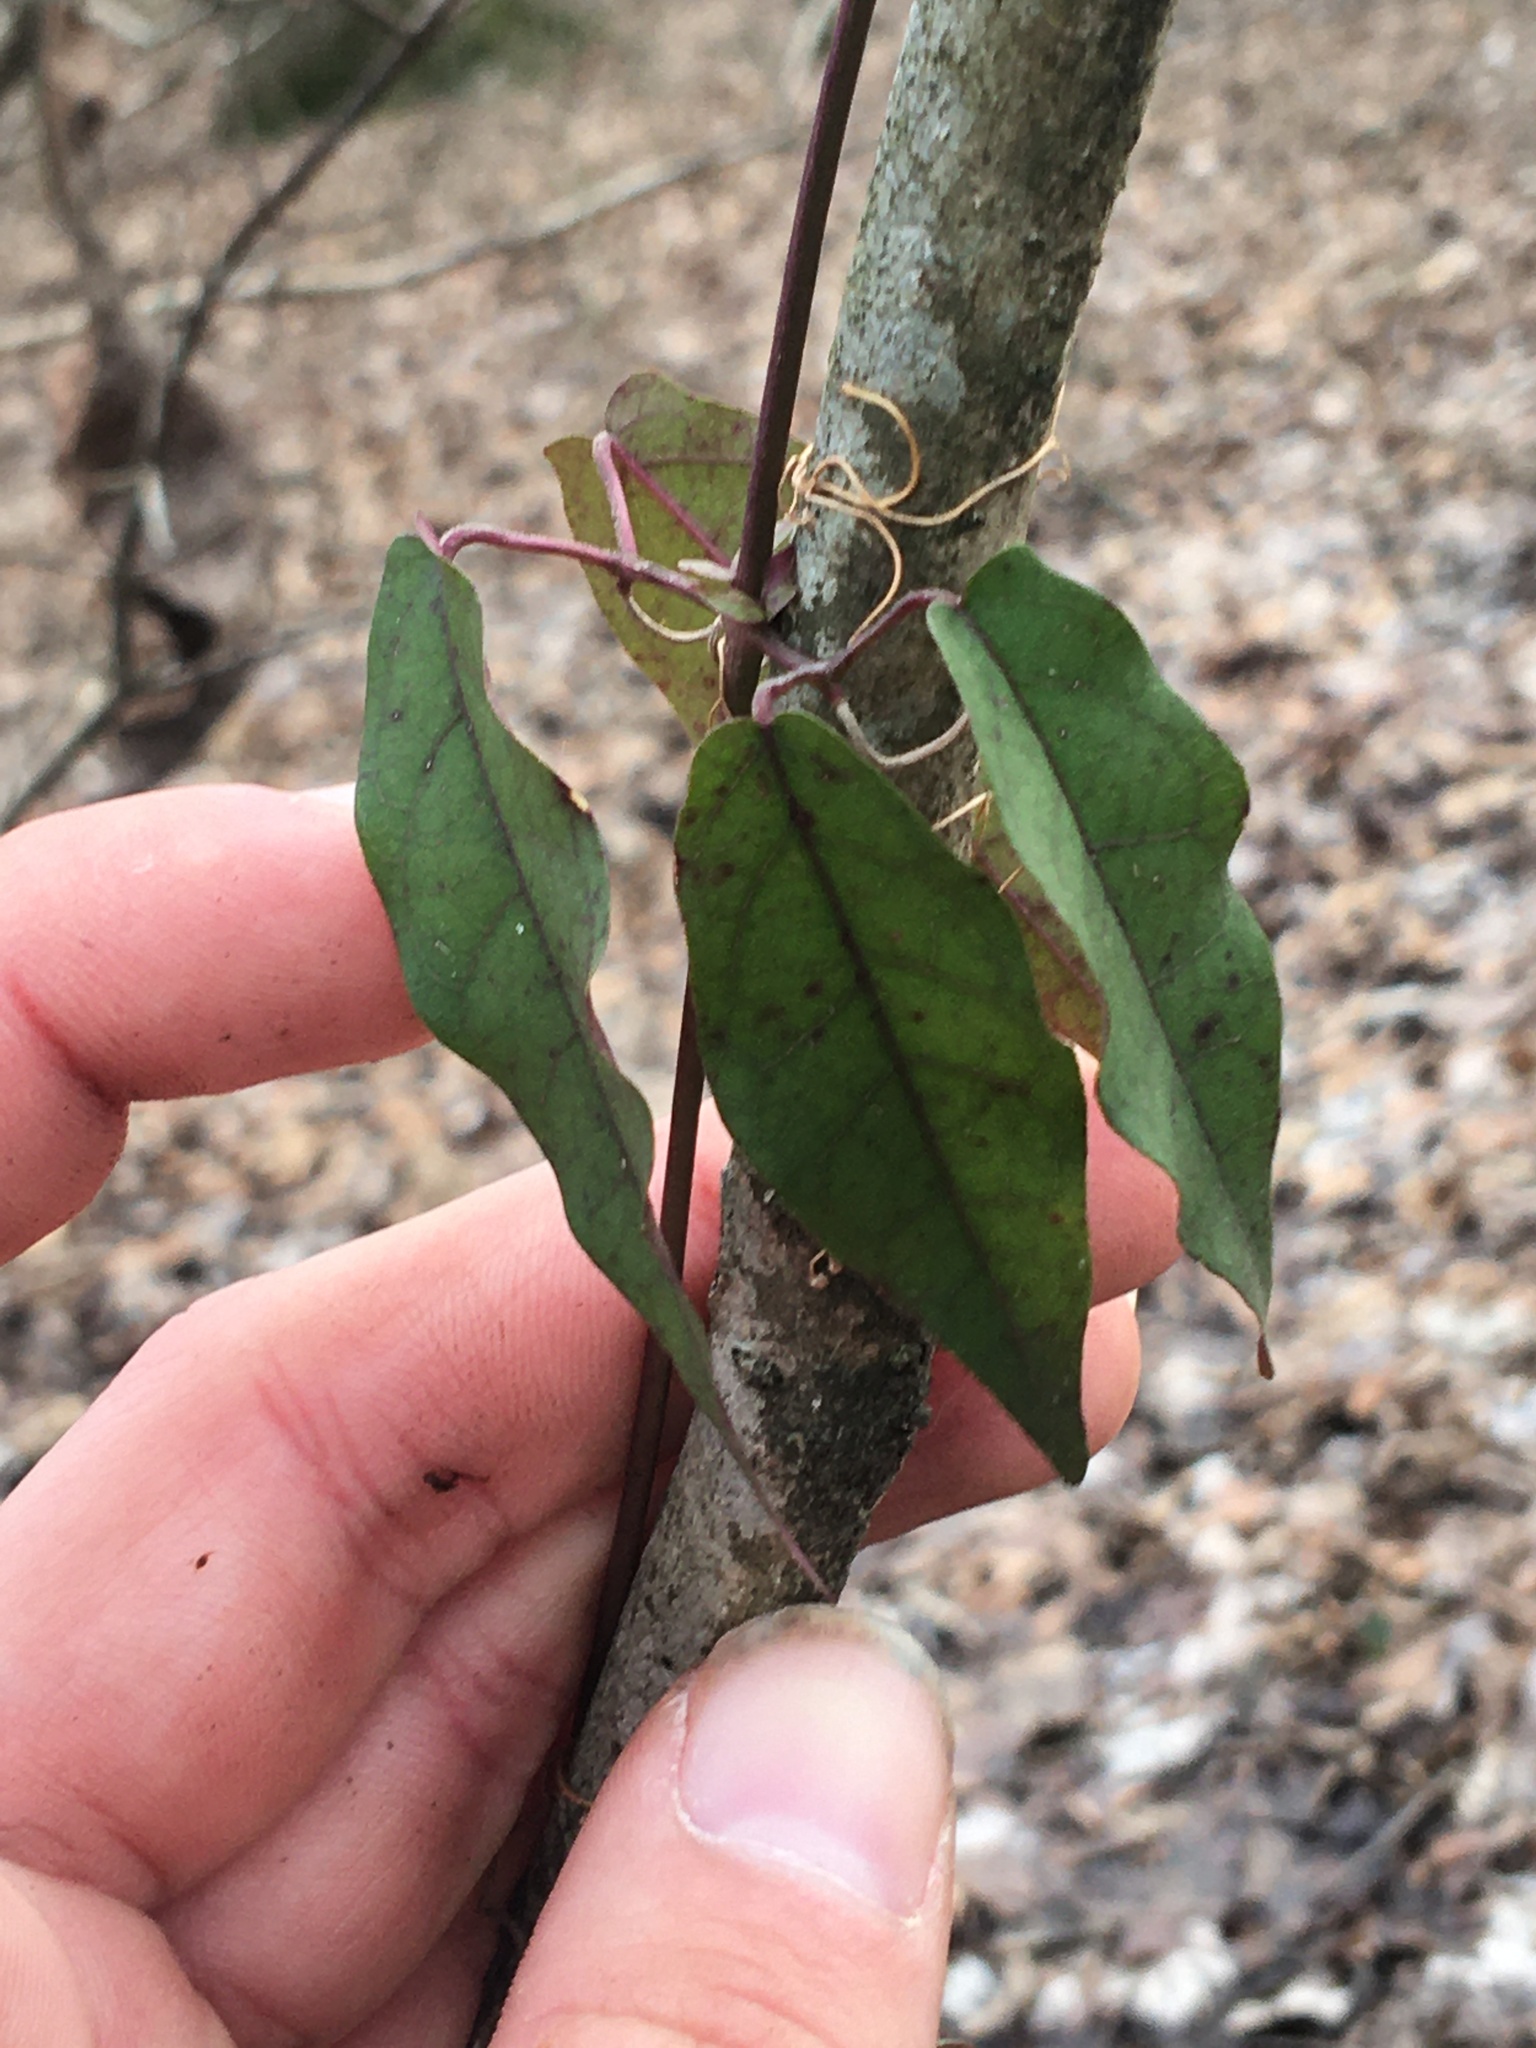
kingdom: Plantae
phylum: Tracheophyta
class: Magnoliopsida
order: Lamiales
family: Bignoniaceae
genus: Bignonia
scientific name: Bignonia capreolata
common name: Crossvine
